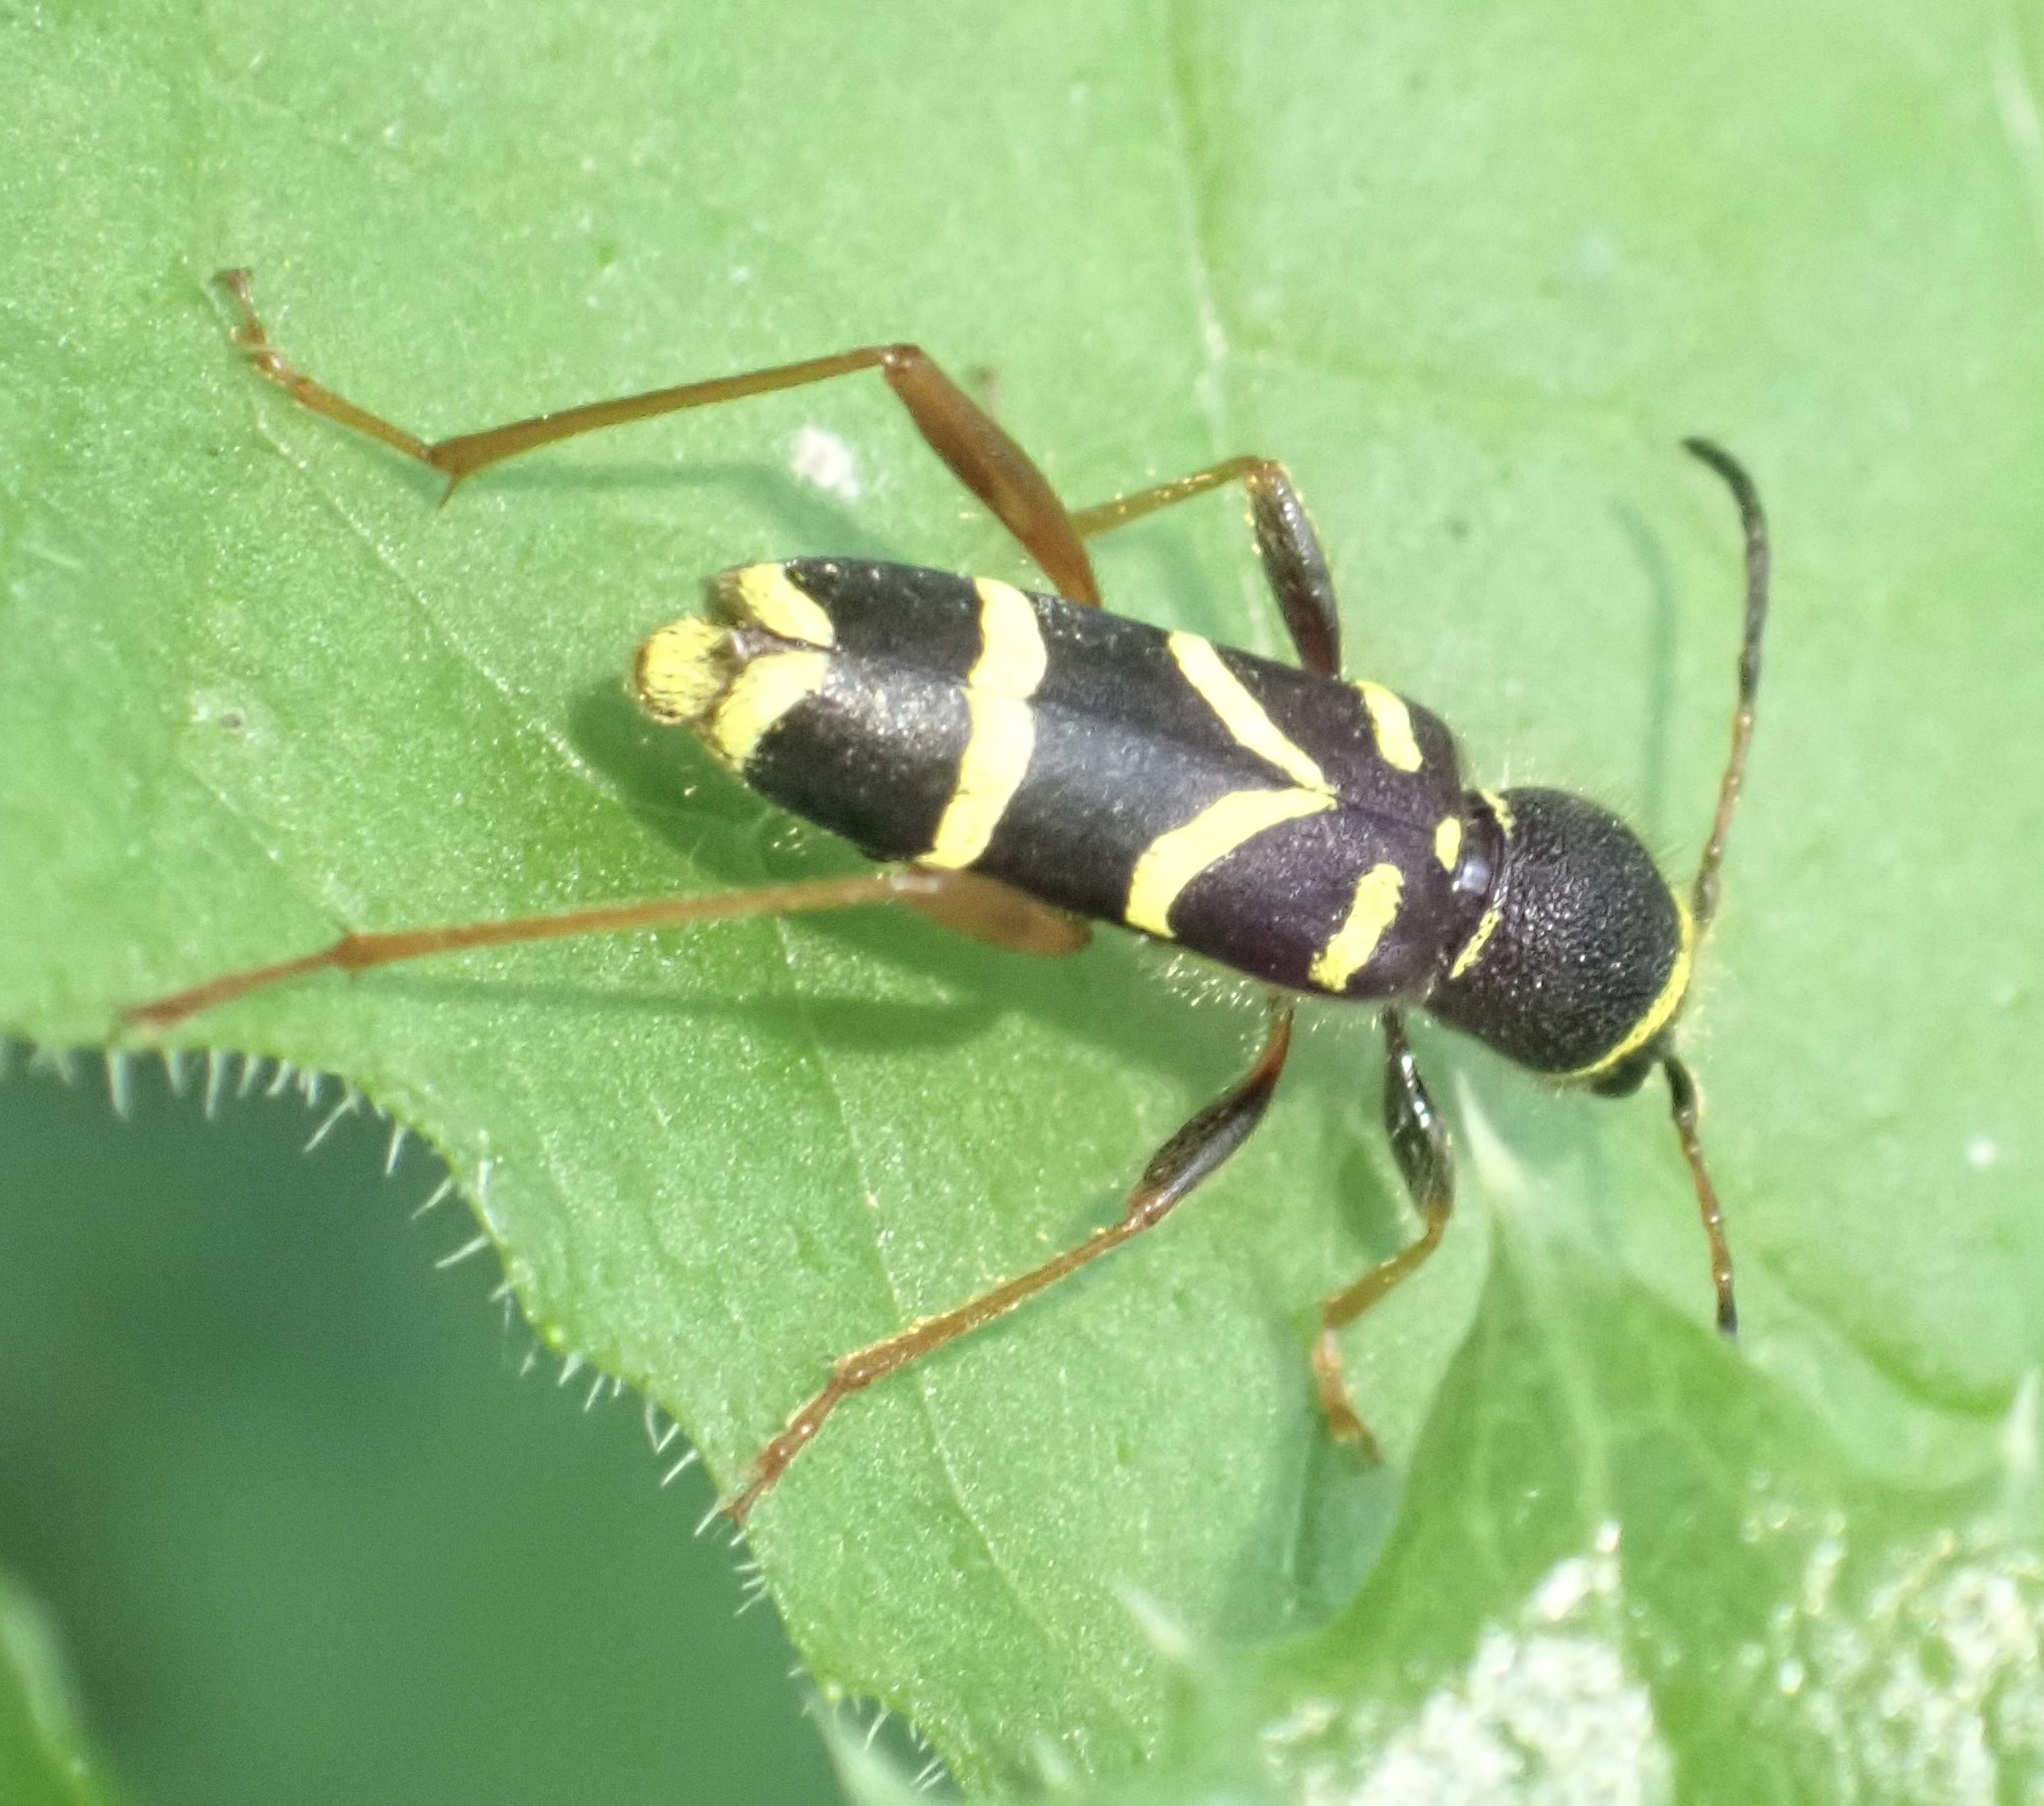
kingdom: Animalia
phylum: Arthropoda
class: Insecta
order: Coleoptera
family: Cerambycidae
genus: Clytus
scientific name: Clytus arietis
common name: Wasp beetle
